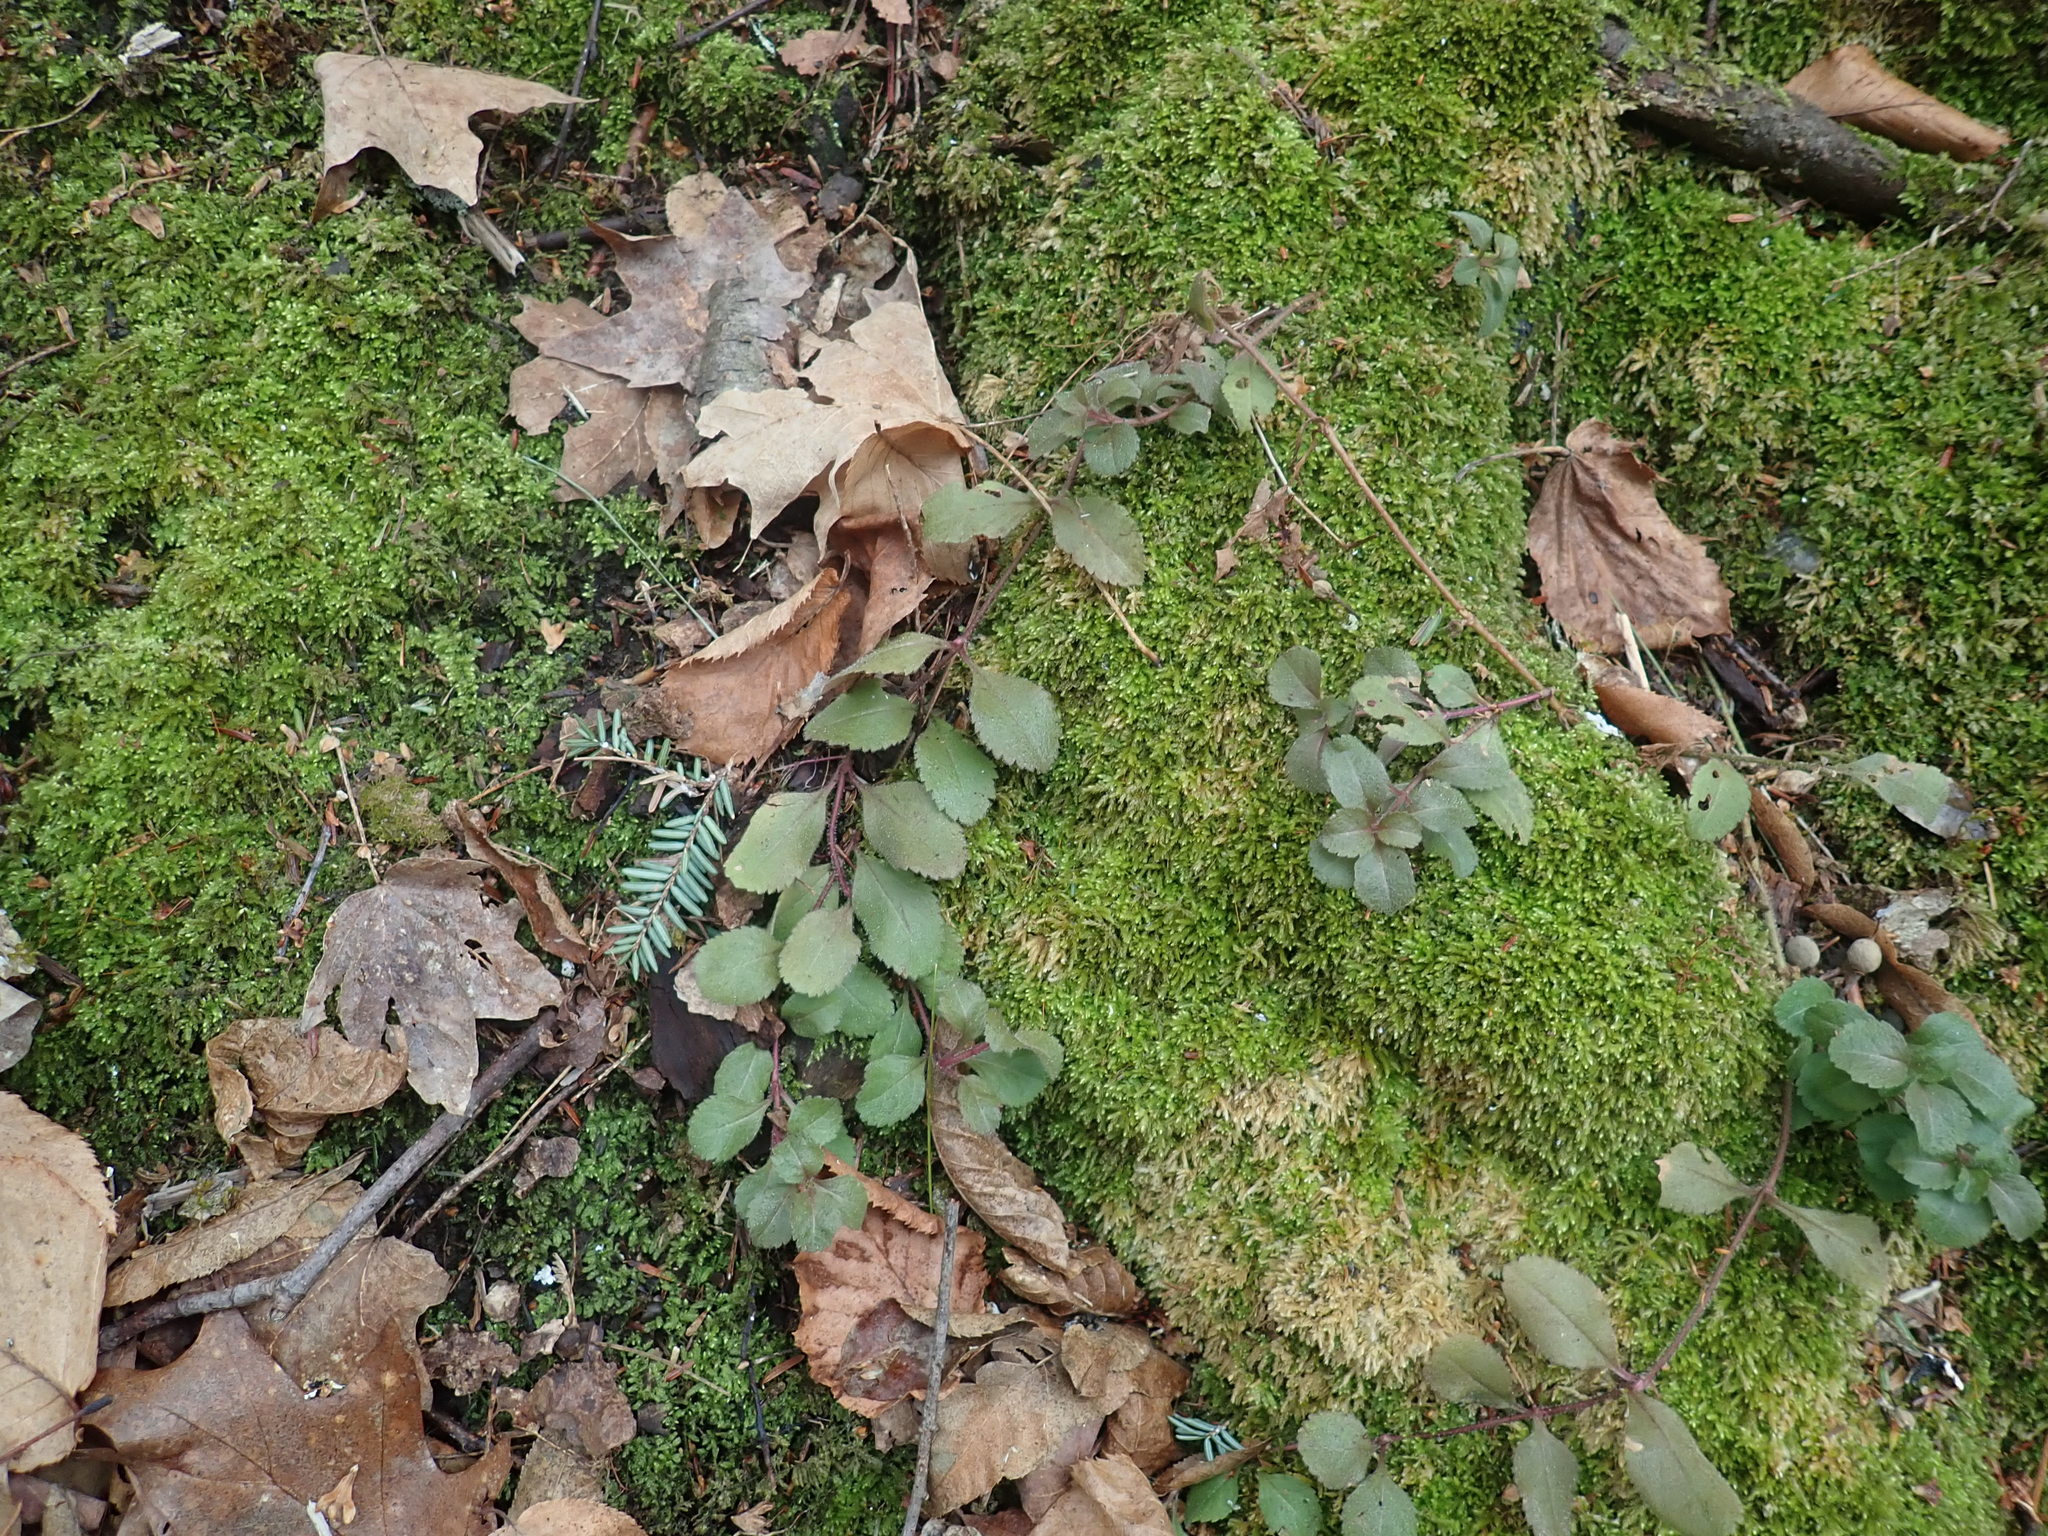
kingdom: Plantae
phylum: Tracheophyta
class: Magnoliopsida
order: Lamiales
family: Plantaginaceae
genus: Veronica
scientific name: Veronica officinalis
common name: Common speedwell
